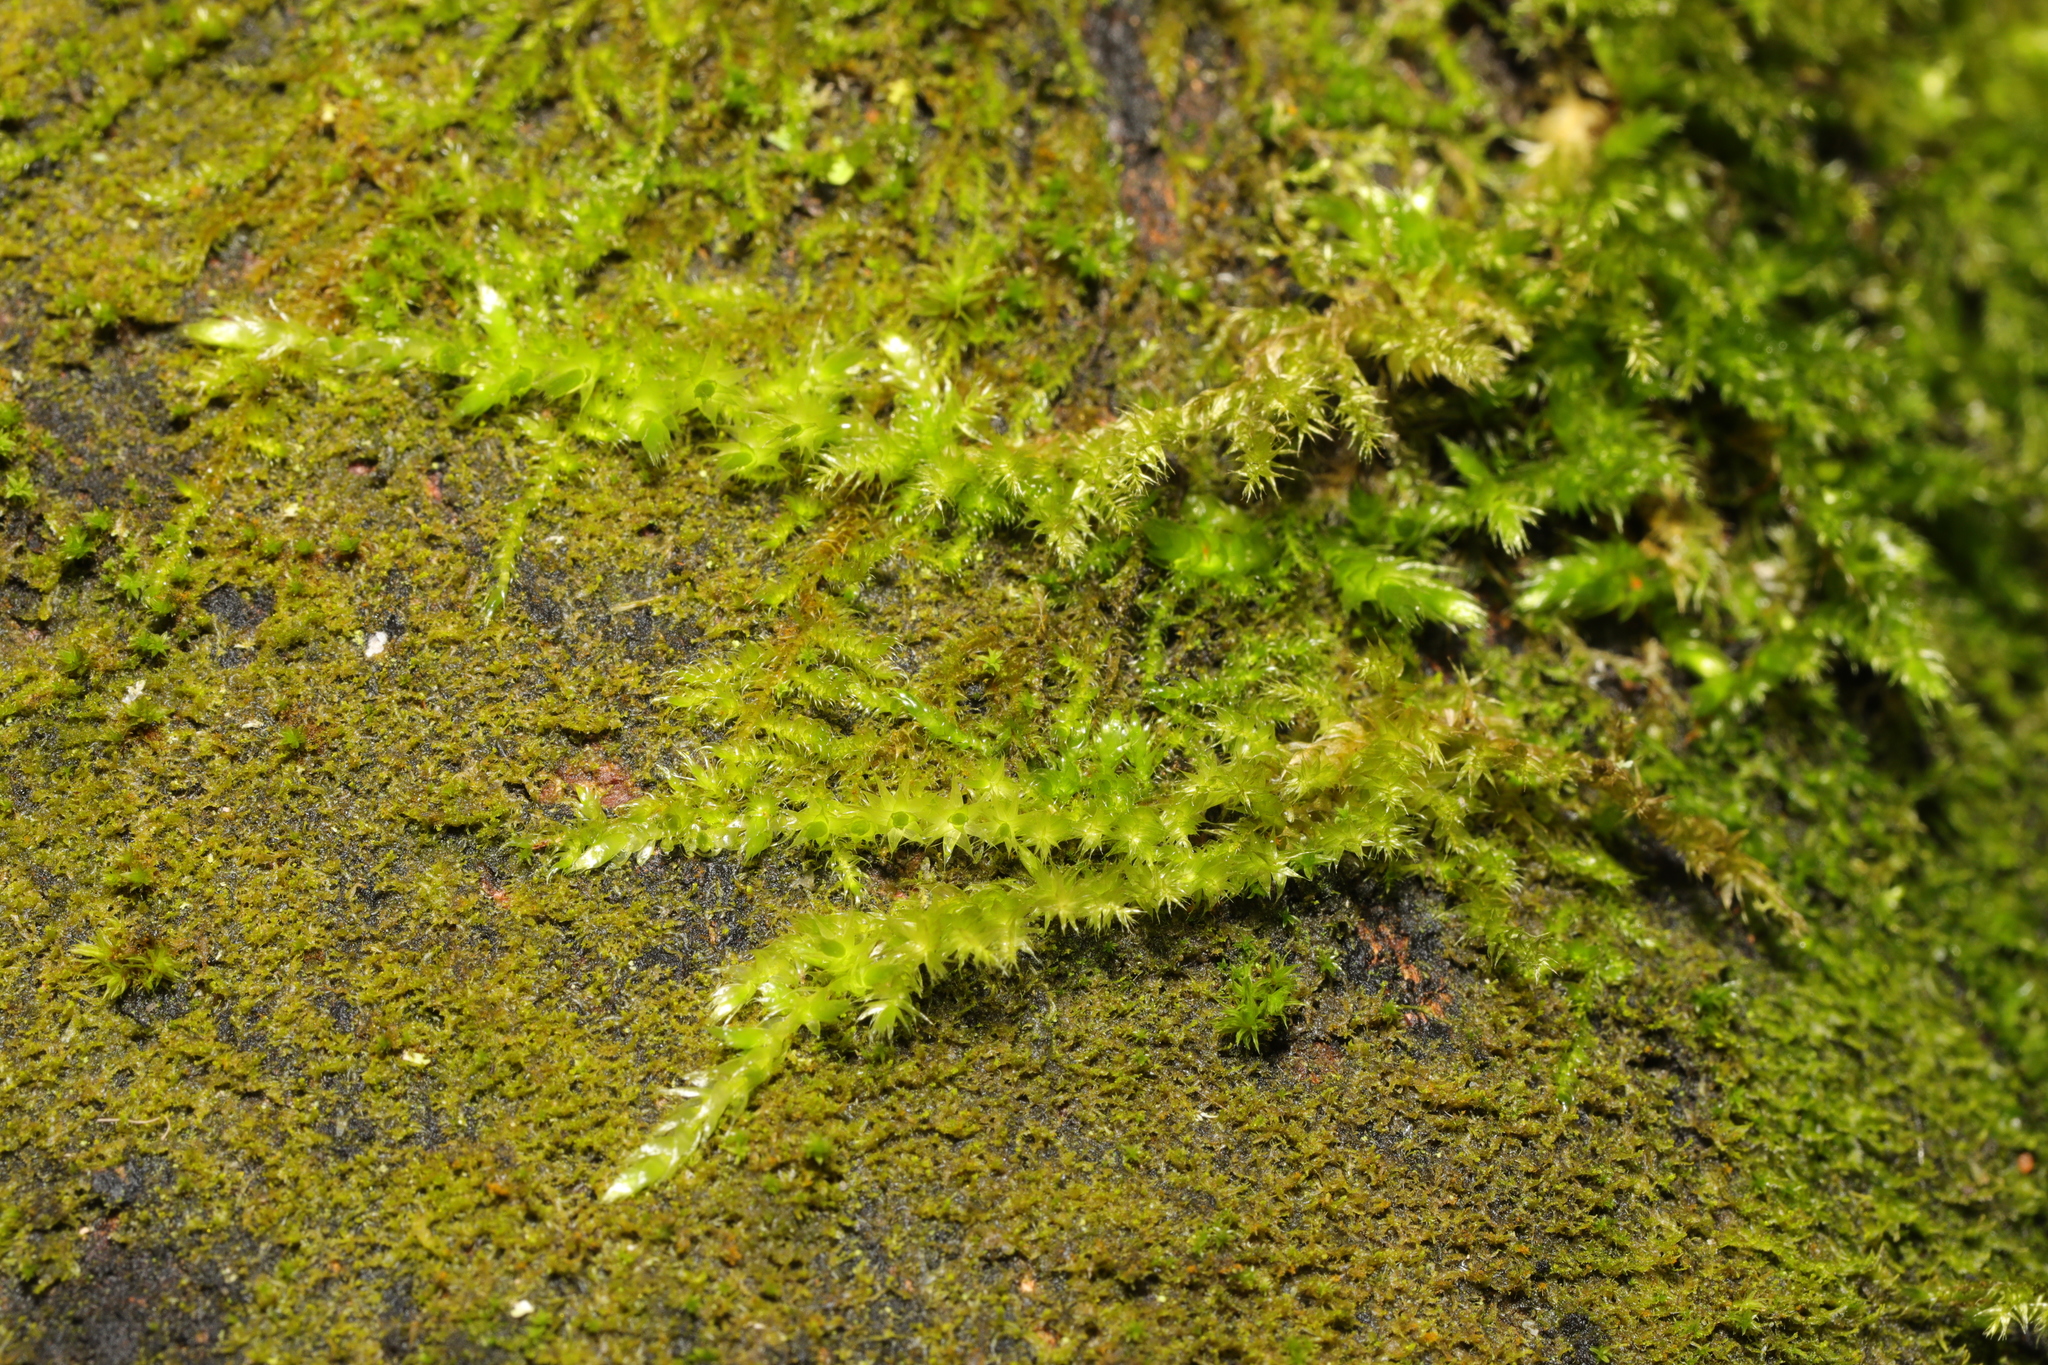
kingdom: Plantae
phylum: Bryophyta
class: Bryopsida
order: Hypnales
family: Brachytheciaceae
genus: Homalothecium
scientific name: Homalothecium sericeum
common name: Silky wall feather-moss
